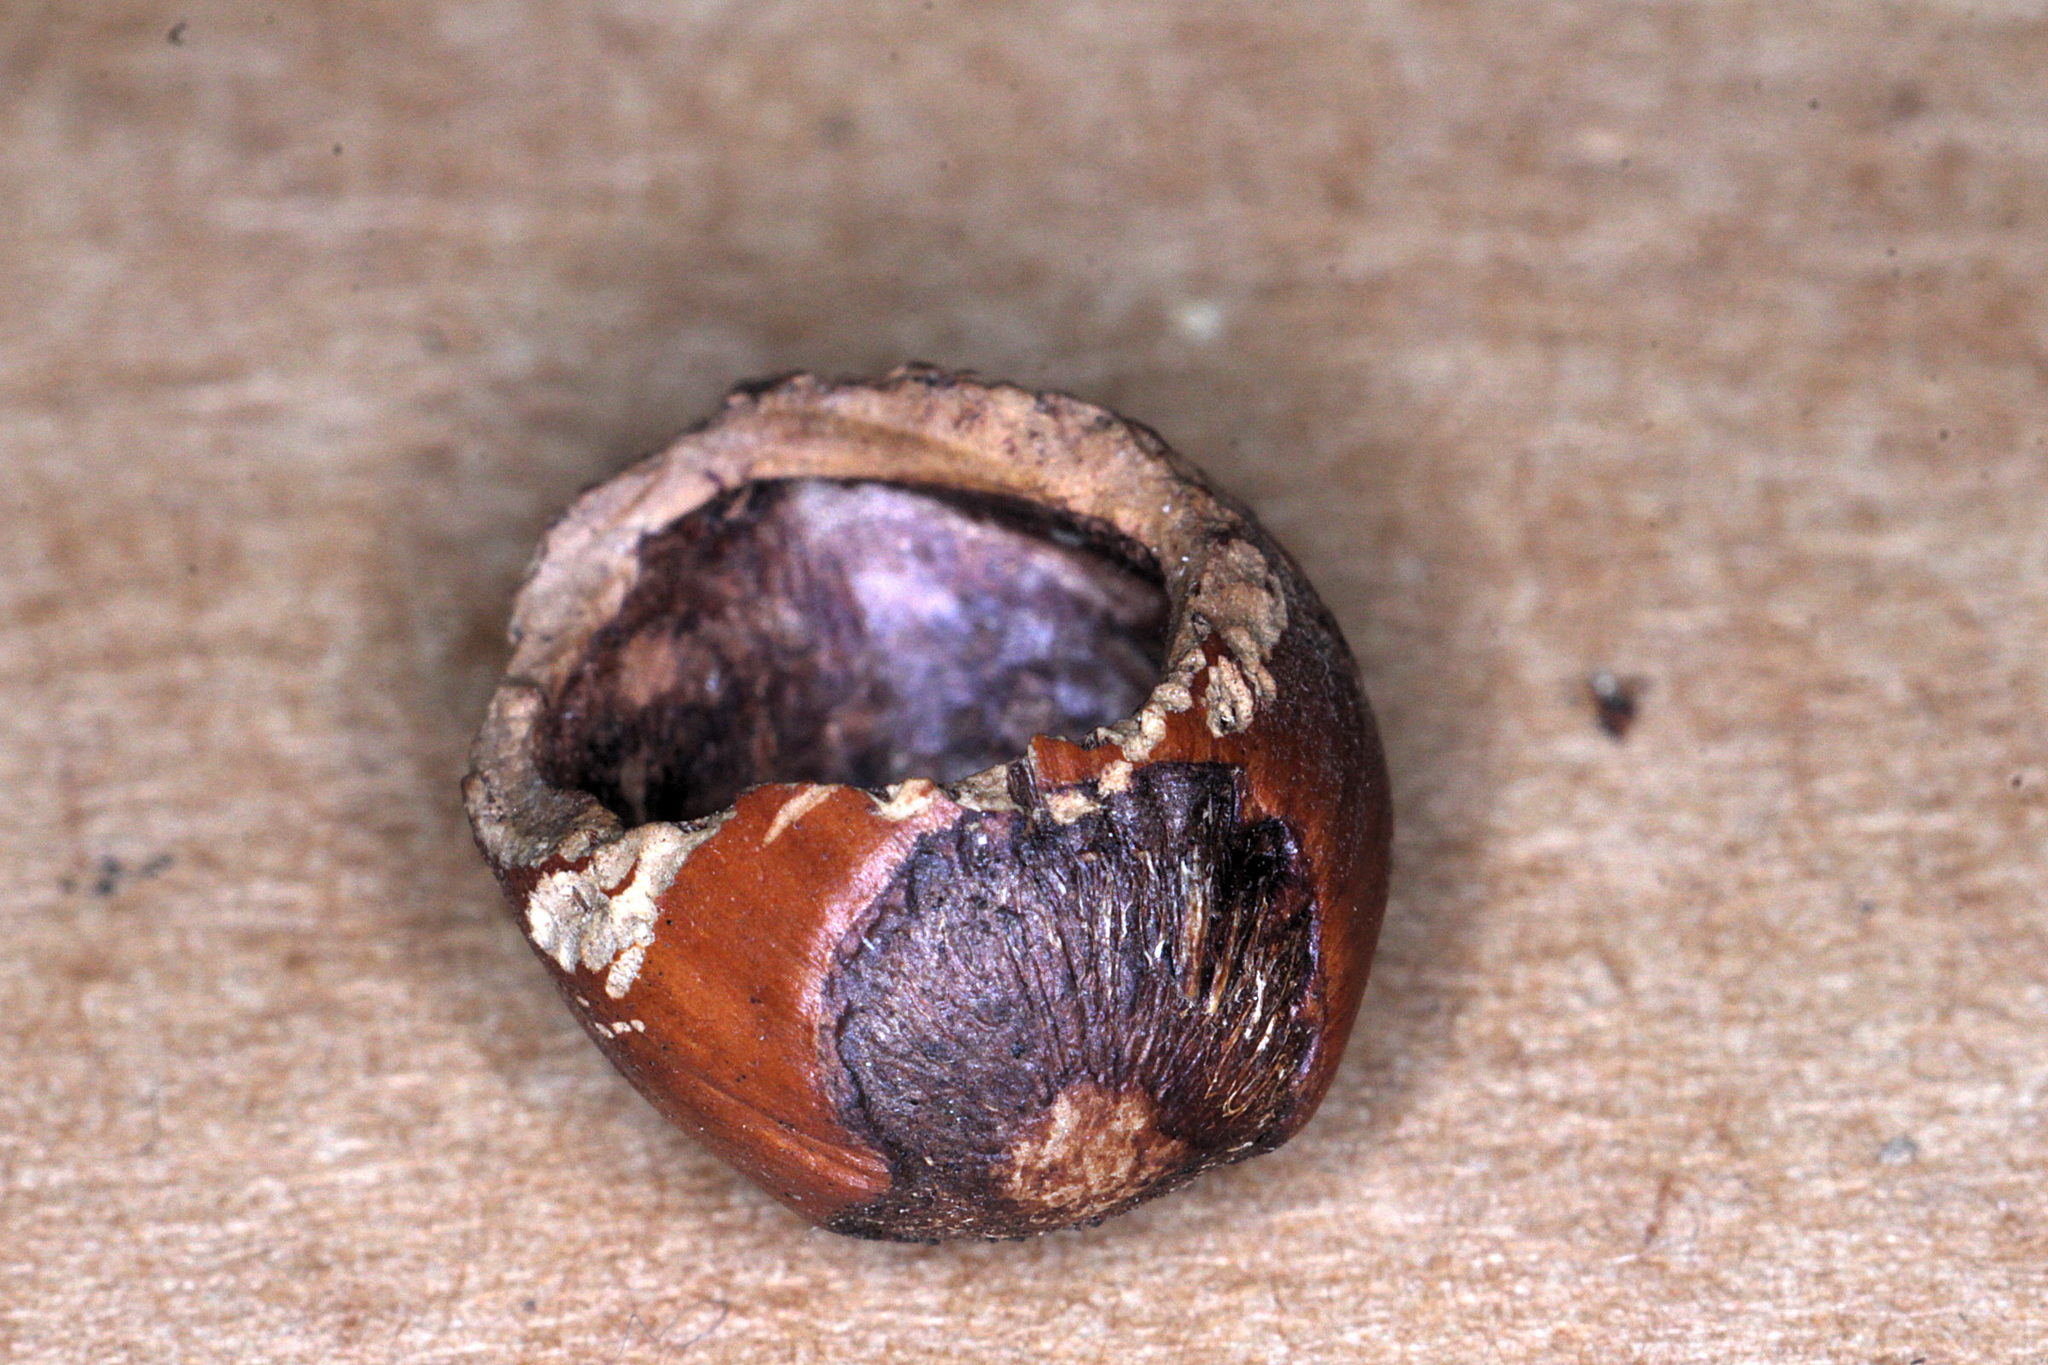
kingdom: Animalia
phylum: Chordata
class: Mammalia
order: Rodentia
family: Gliridae
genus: Muscardinus
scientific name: Muscardinus avellanarius
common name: Hazel dormouse
